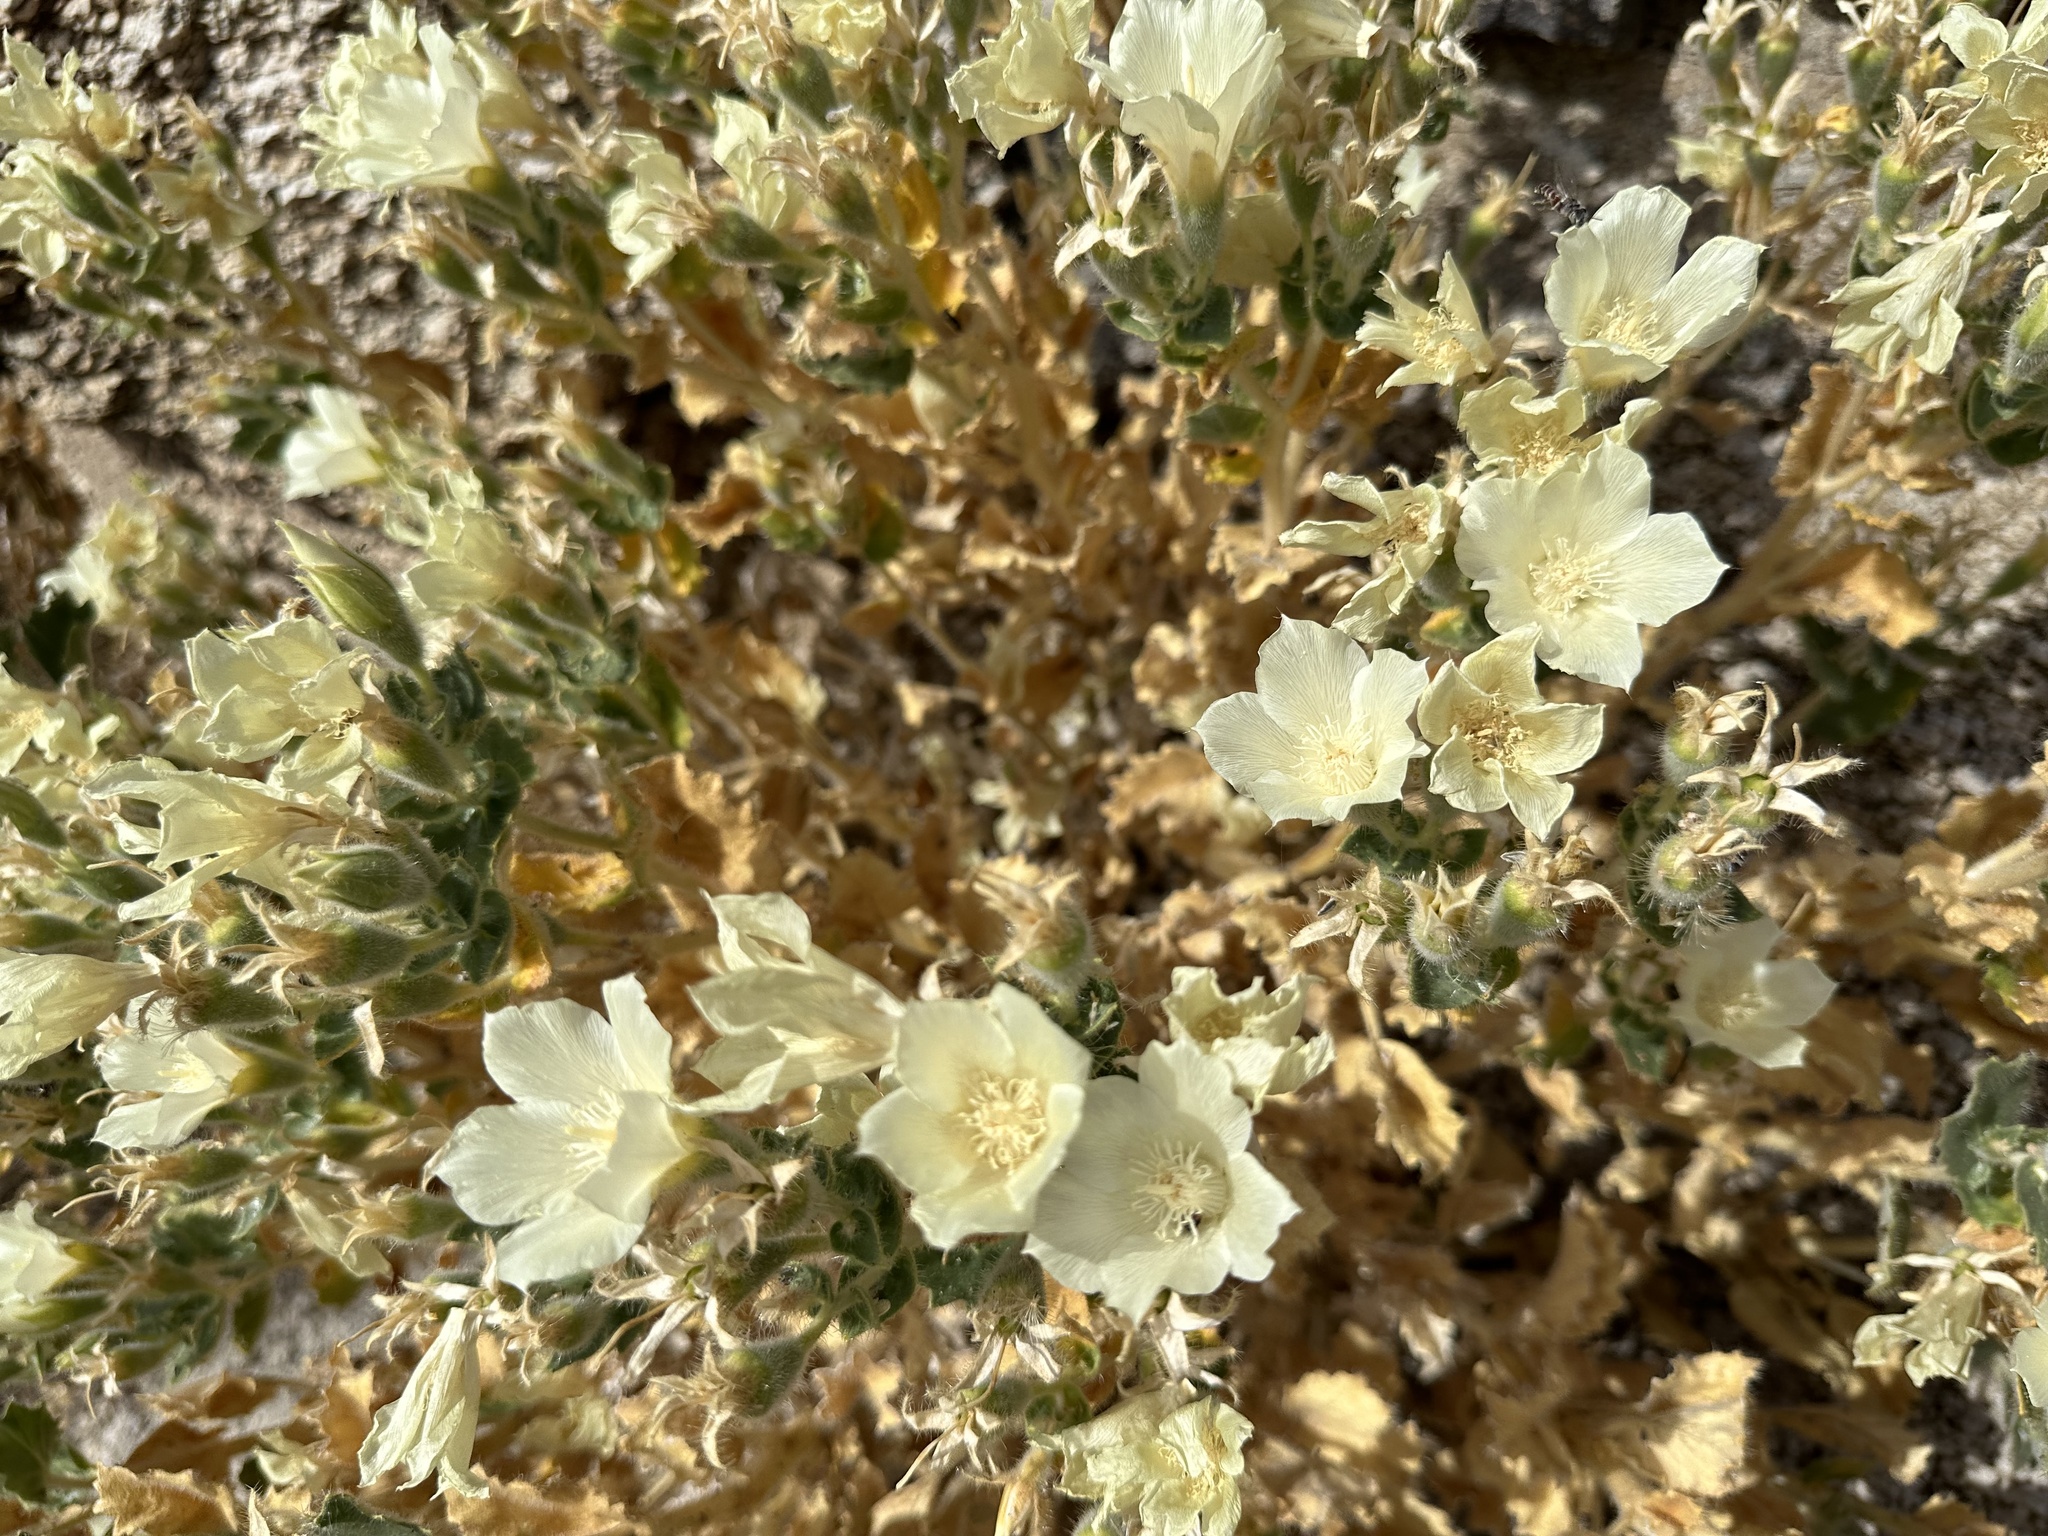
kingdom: Plantae
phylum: Tracheophyta
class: Magnoliopsida
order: Cornales
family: Loasaceae
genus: Eucnide
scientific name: Eucnide urens
